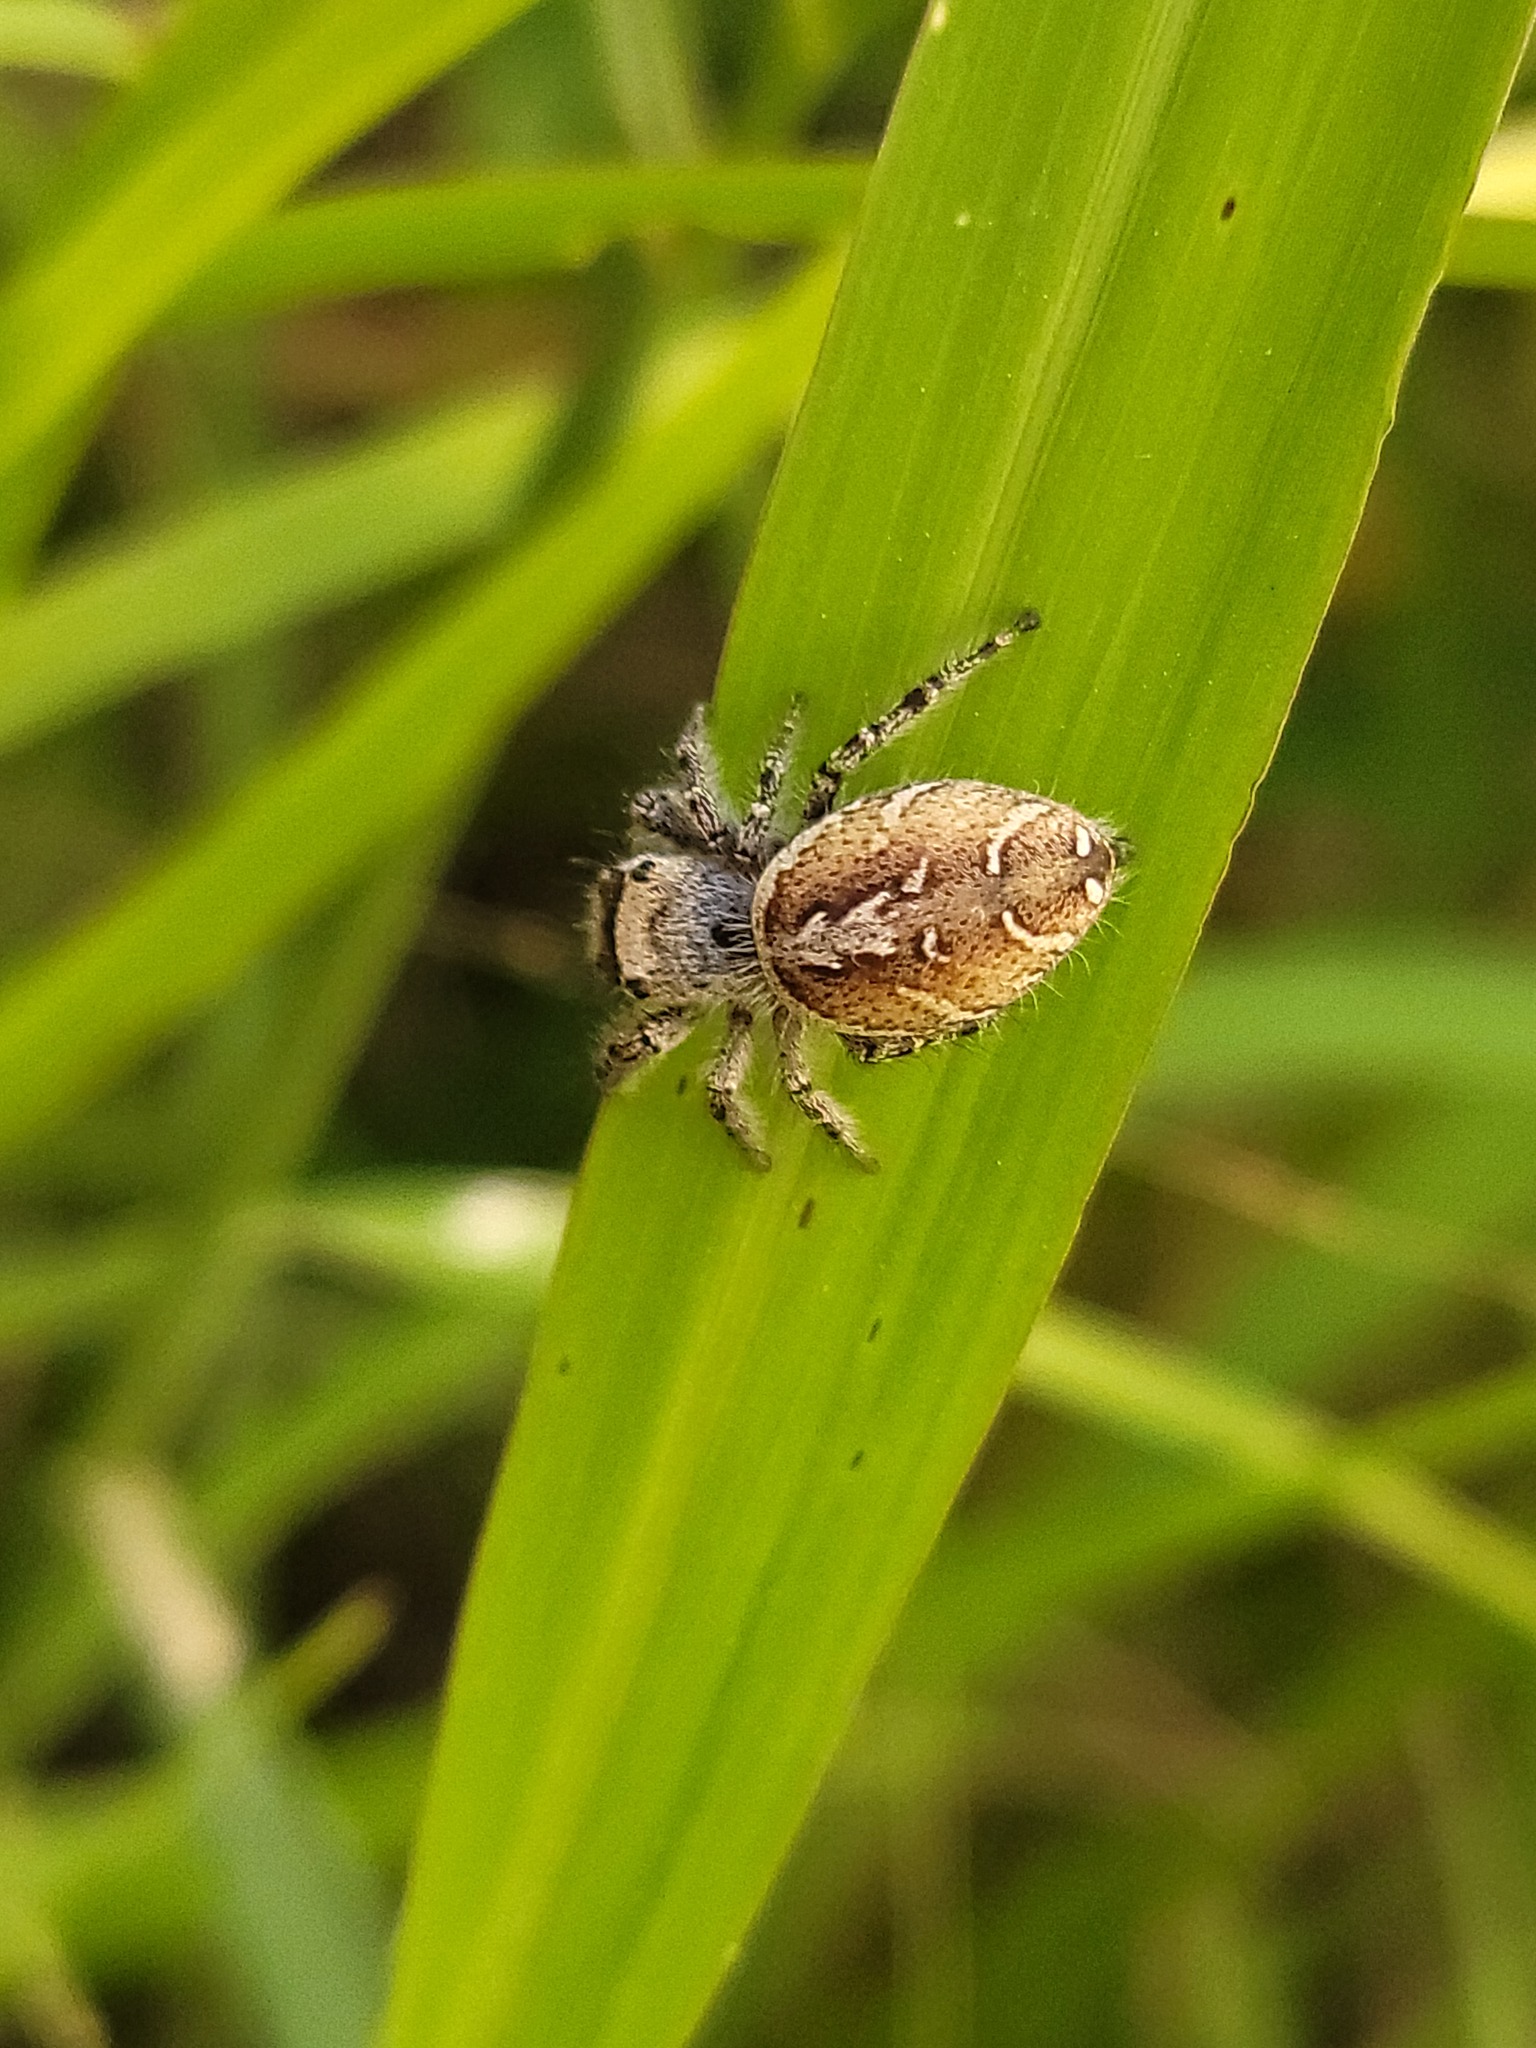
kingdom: Animalia
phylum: Arthropoda
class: Arachnida
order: Araneae
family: Salticidae
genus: Phidippus
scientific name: Phidippus arizonensis
